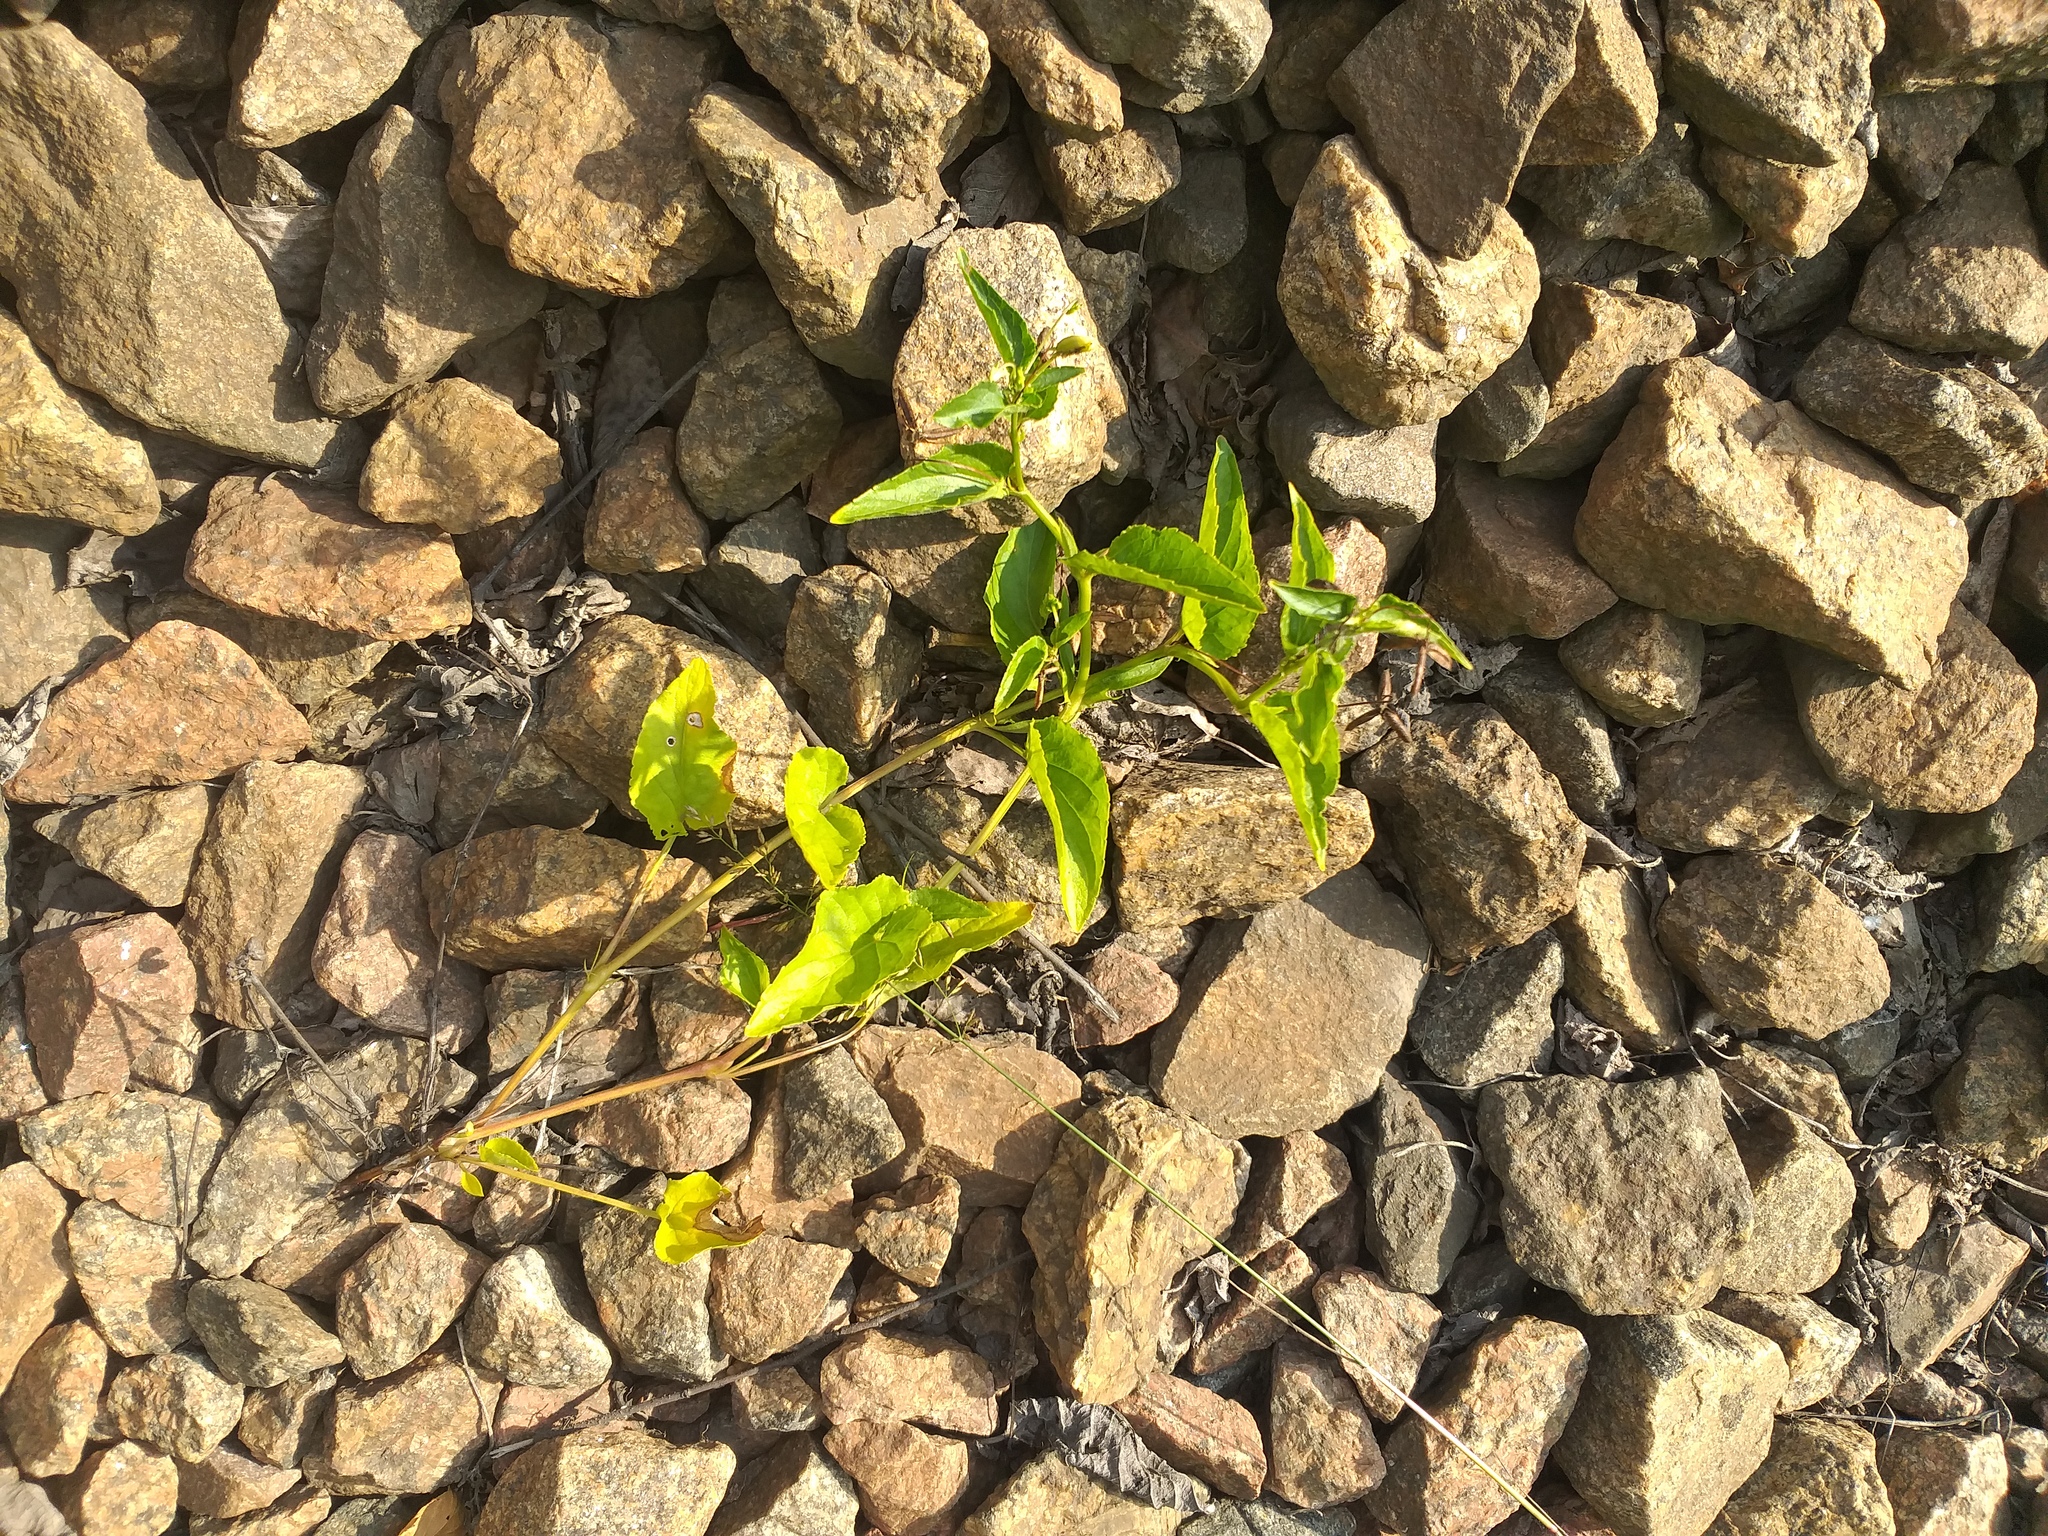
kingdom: Plantae
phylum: Tracheophyta
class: Magnoliopsida
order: Malpighiales
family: Violaceae
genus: Viola
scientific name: Viola canina
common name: Heath dog-violet
